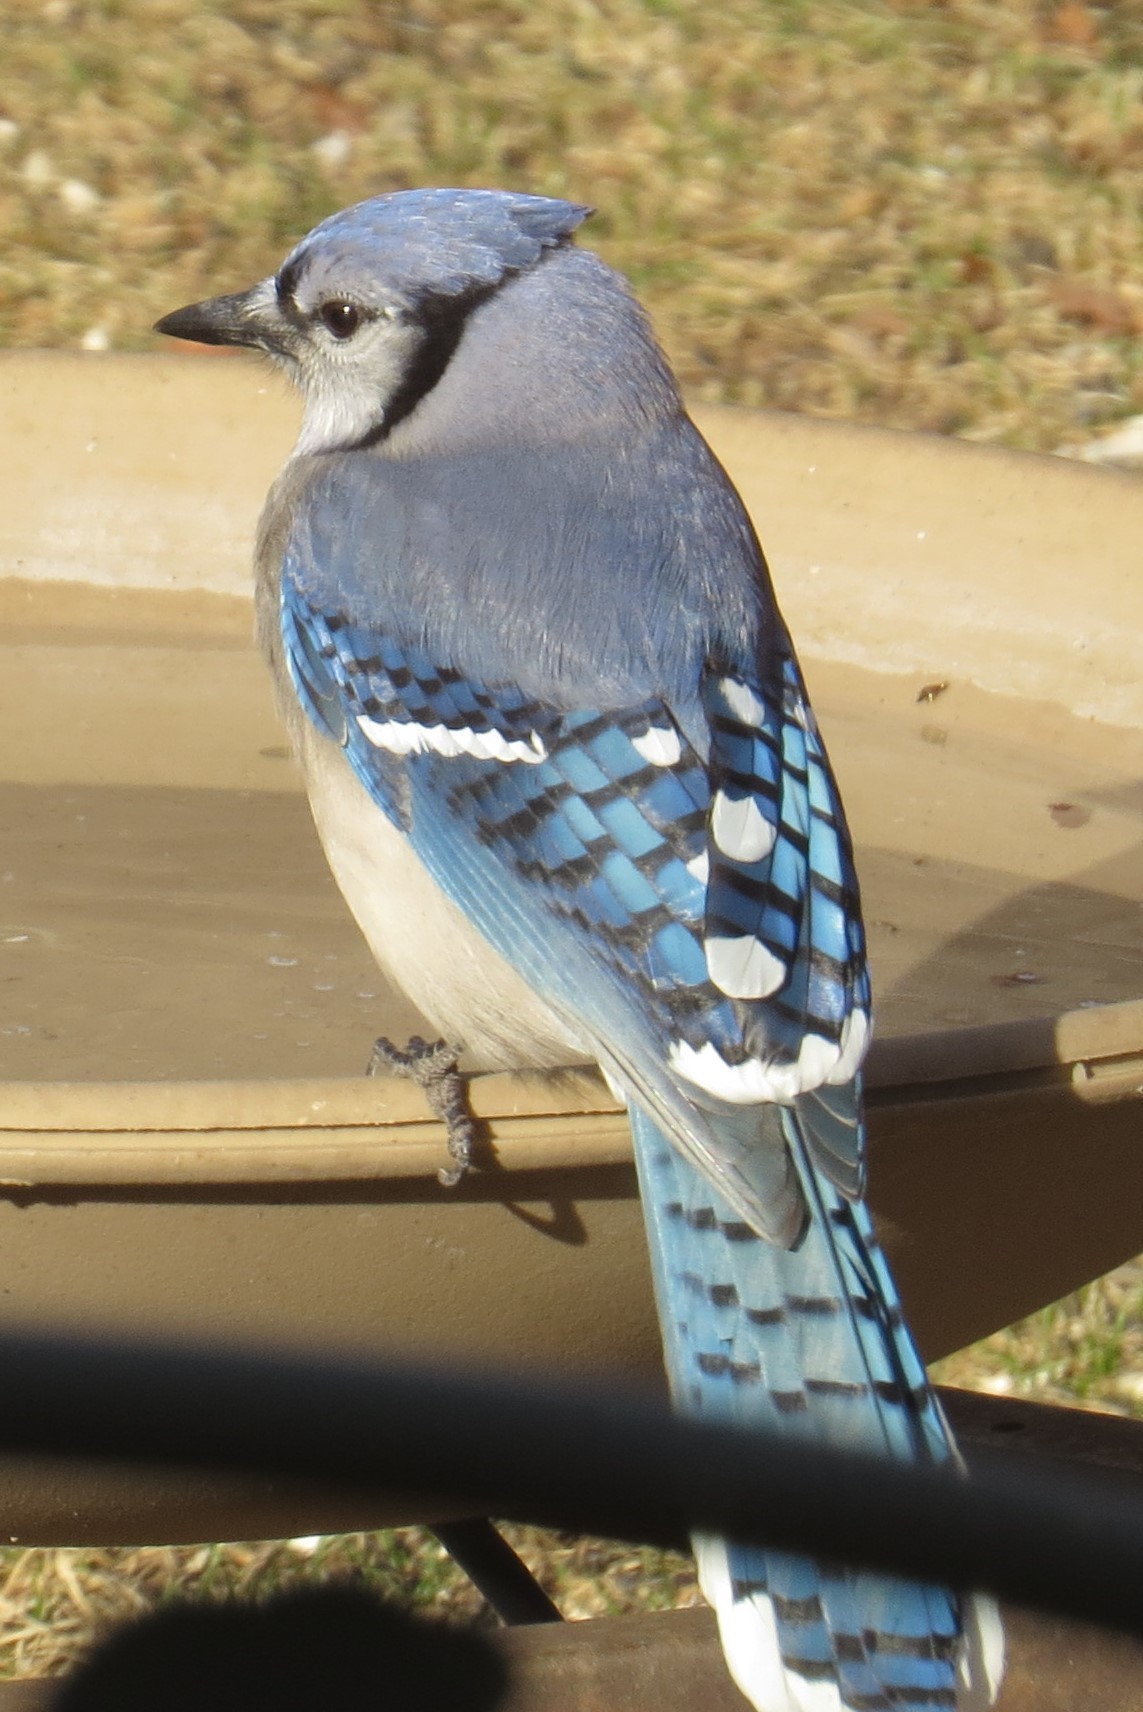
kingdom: Animalia
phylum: Chordata
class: Aves
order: Passeriformes
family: Corvidae
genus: Cyanocitta
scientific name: Cyanocitta cristata
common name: Blue jay
